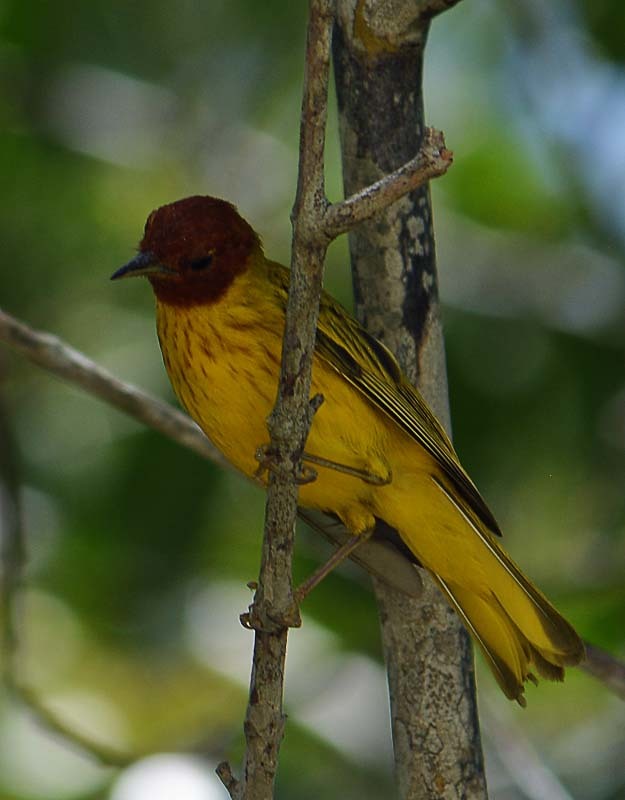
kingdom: Animalia
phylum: Chordata
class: Aves
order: Passeriformes
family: Parulidae
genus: Setophaga
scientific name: Setophaga petechia
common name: Yellow warbler
